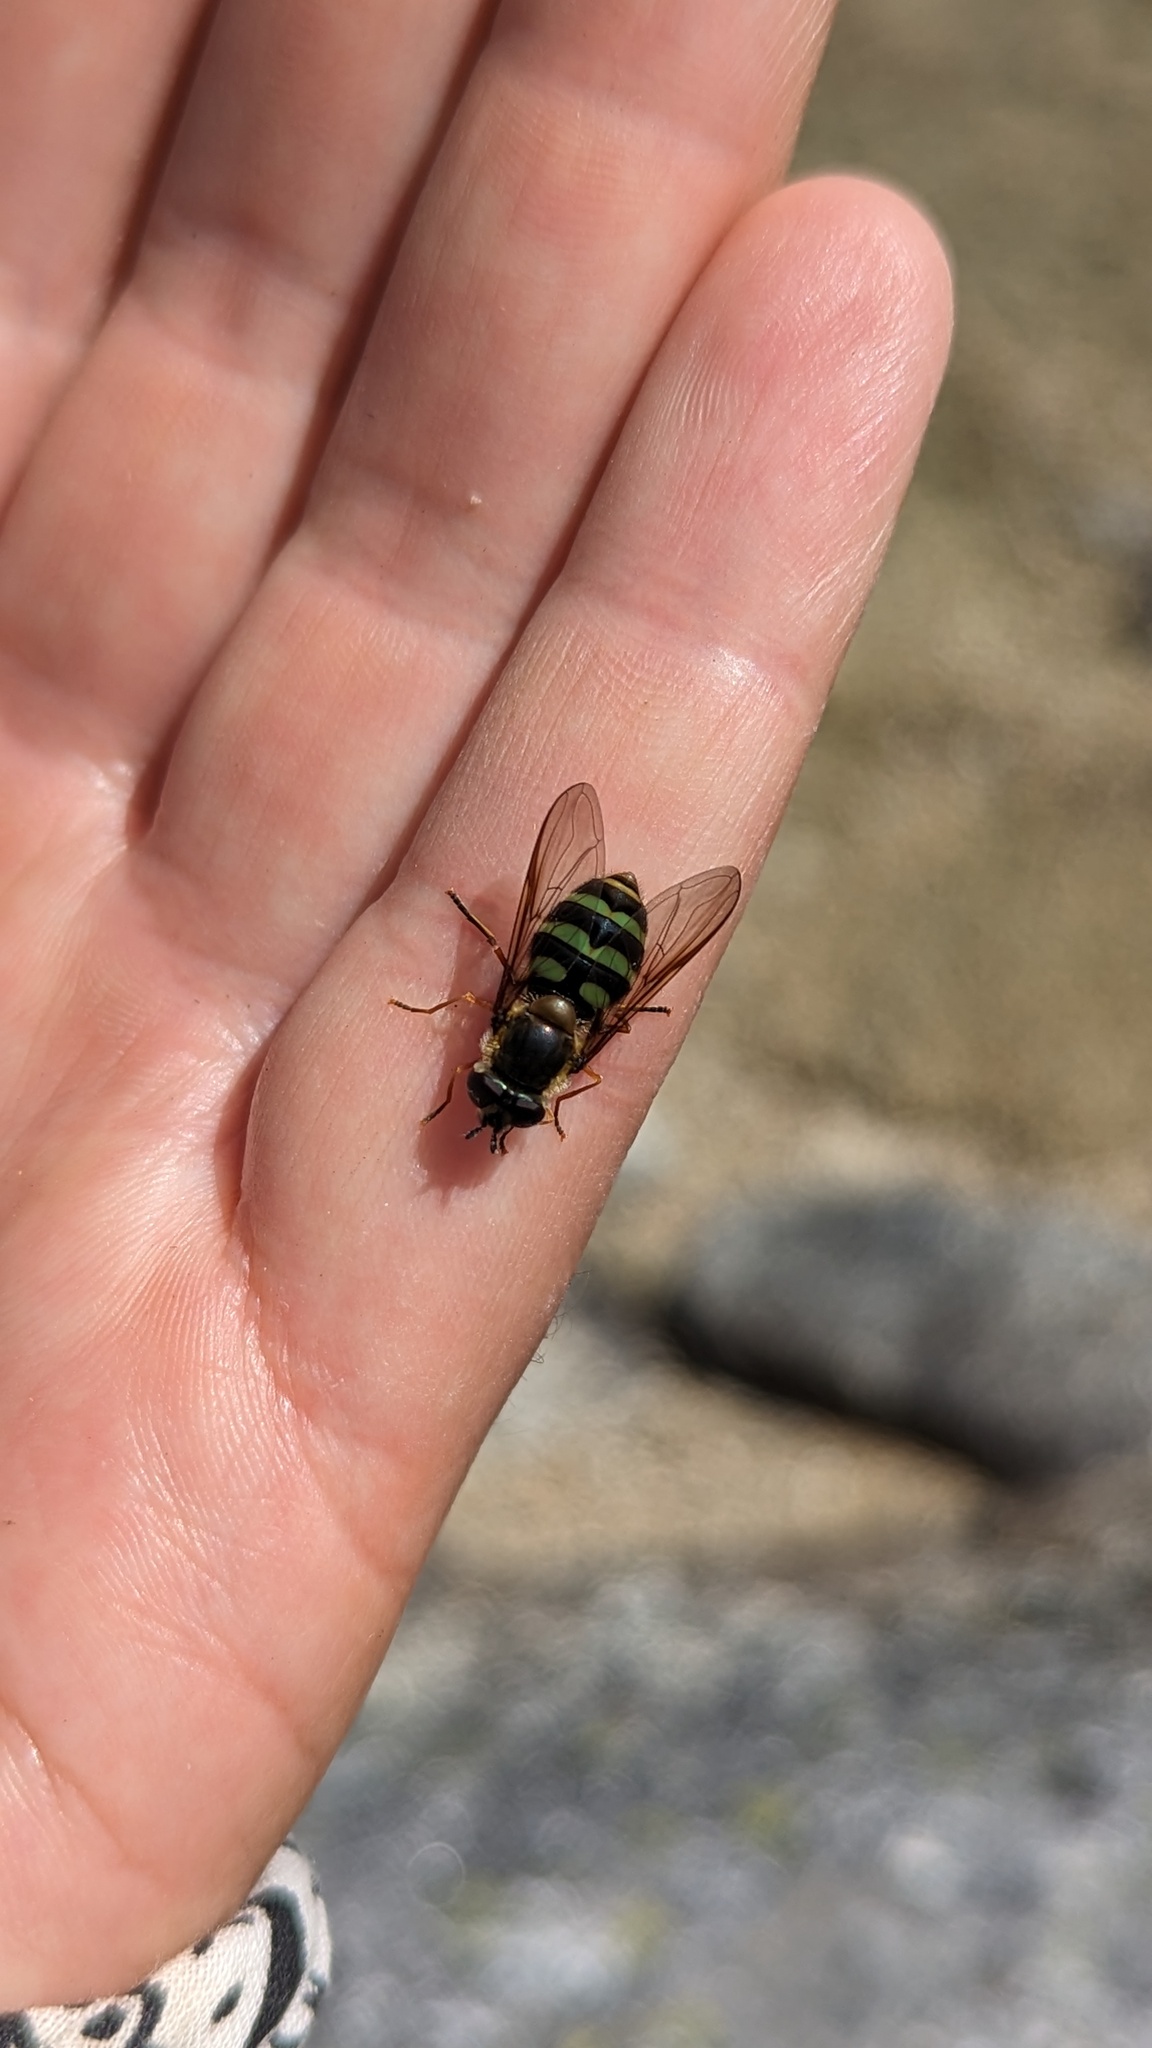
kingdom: Animalia
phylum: Arthropoda
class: Insecta
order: Diptera
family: Syrphidae
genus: Megasyrphus
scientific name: Megasyrphus laxus
